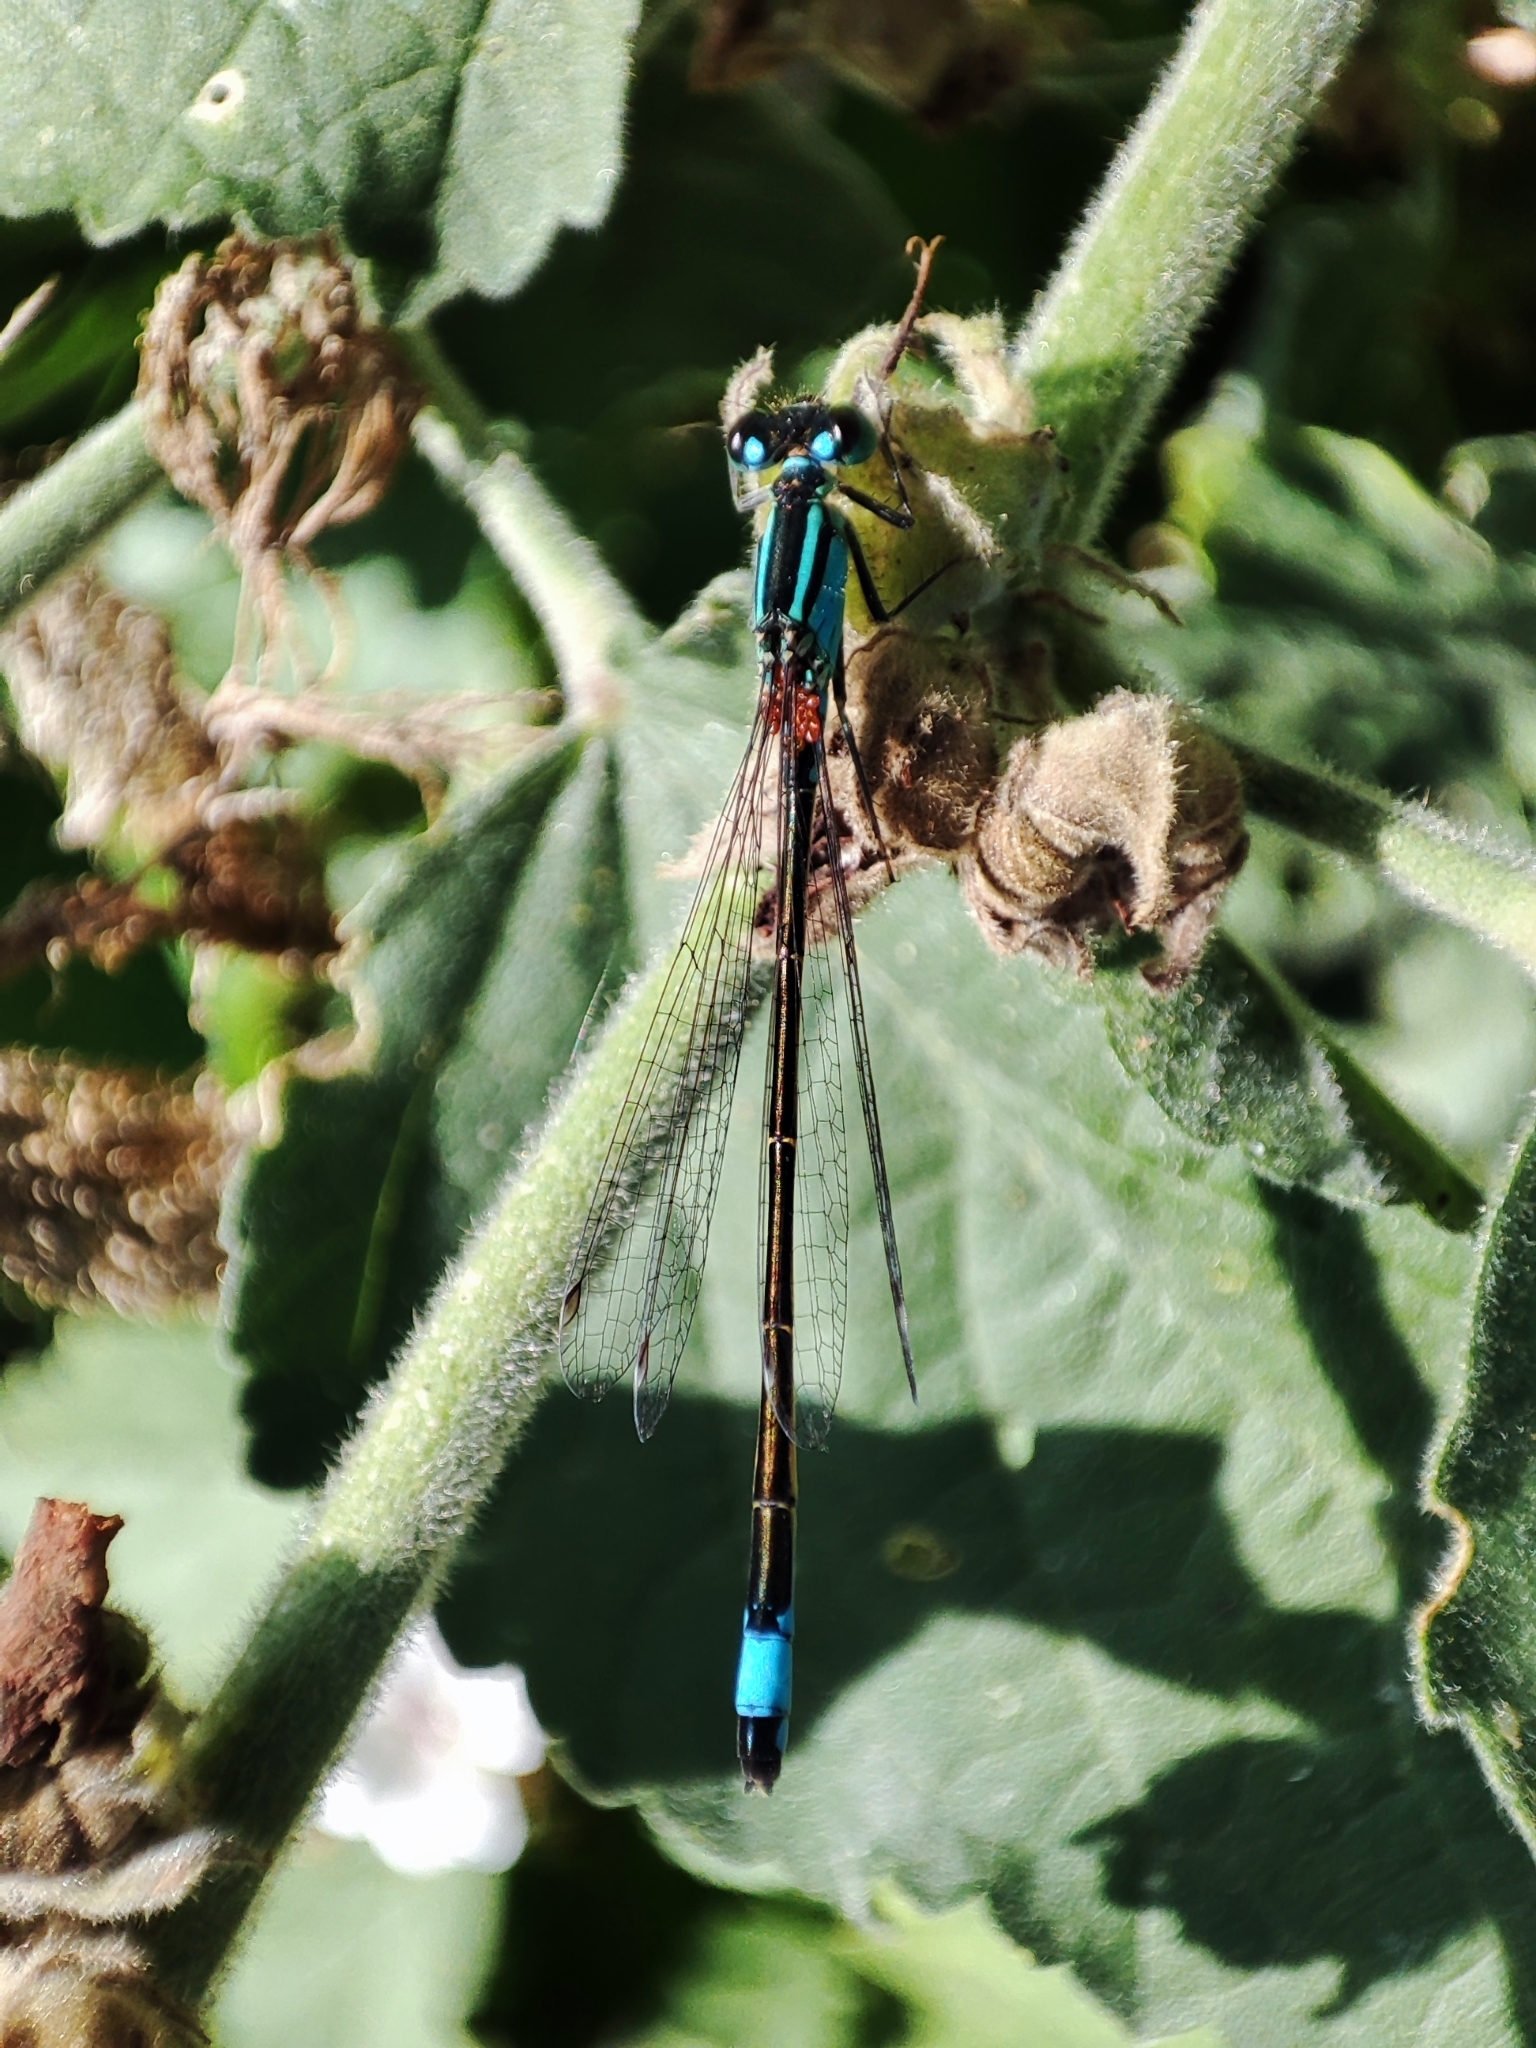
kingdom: Animalia
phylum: Arthropoda
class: Insecta
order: Odonata
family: Coenagrionidae
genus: Ischnura
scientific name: Ischnura elegans
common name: Blue-tailed damselfly
